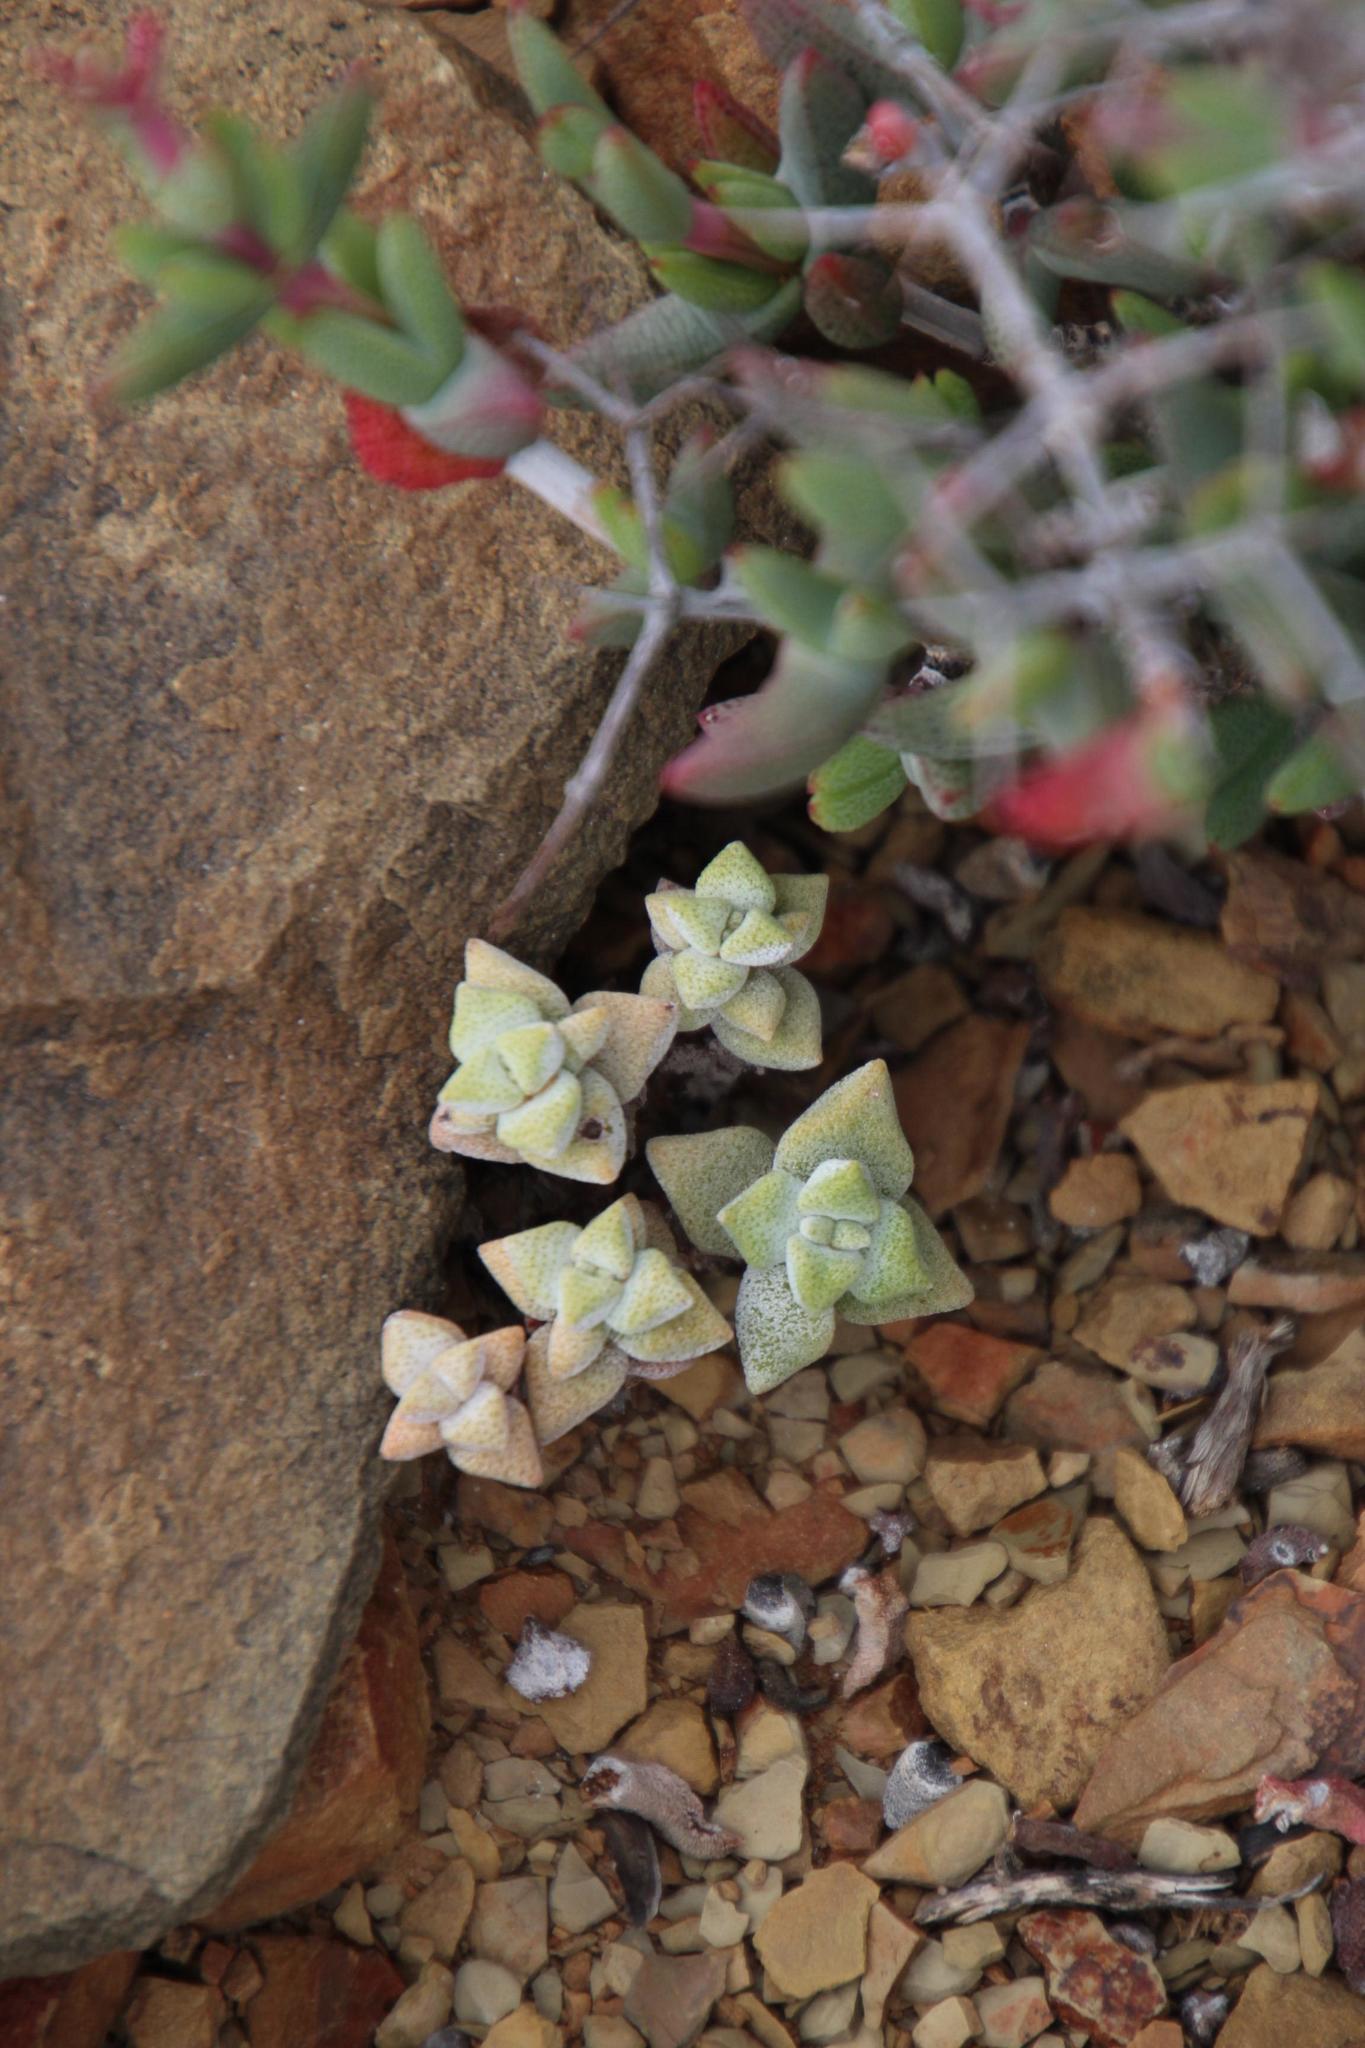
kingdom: Plantae
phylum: Tracheophyta
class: Magnoliopsida
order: Saxifragales
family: Crassulaceae
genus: Crassula
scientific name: Crassula deltoidea
